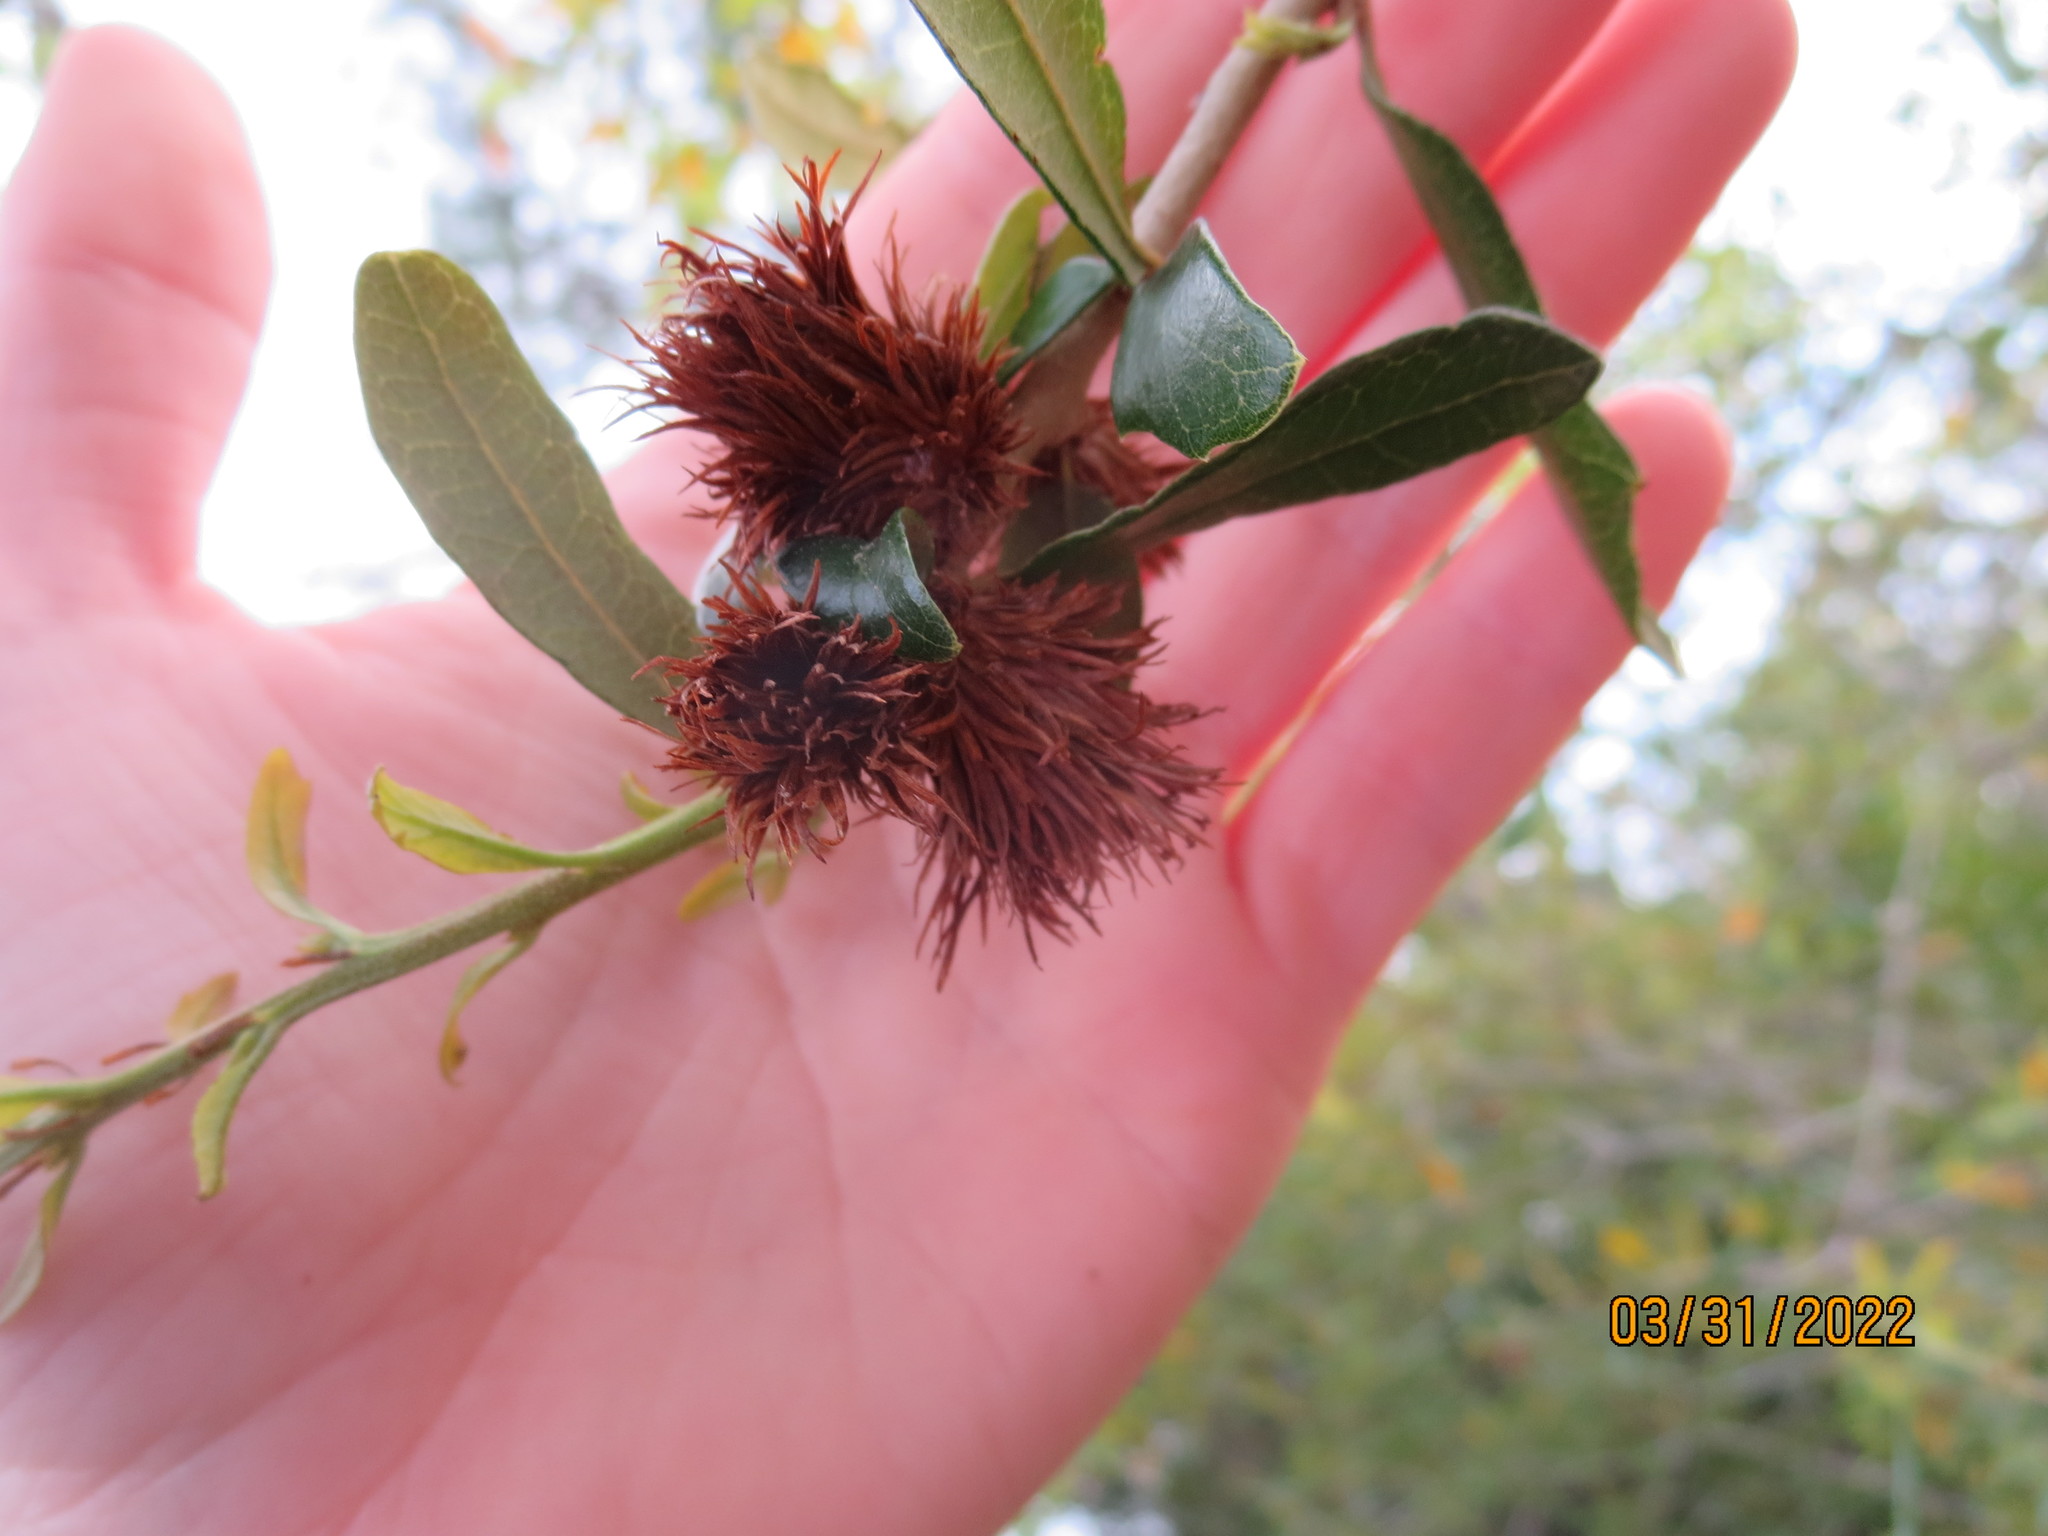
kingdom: Animalia
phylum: Arthropoda
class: Insecta
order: Hymenoptera
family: Cynipidae
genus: Andricus
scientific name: Andricus quercusfoliatus
